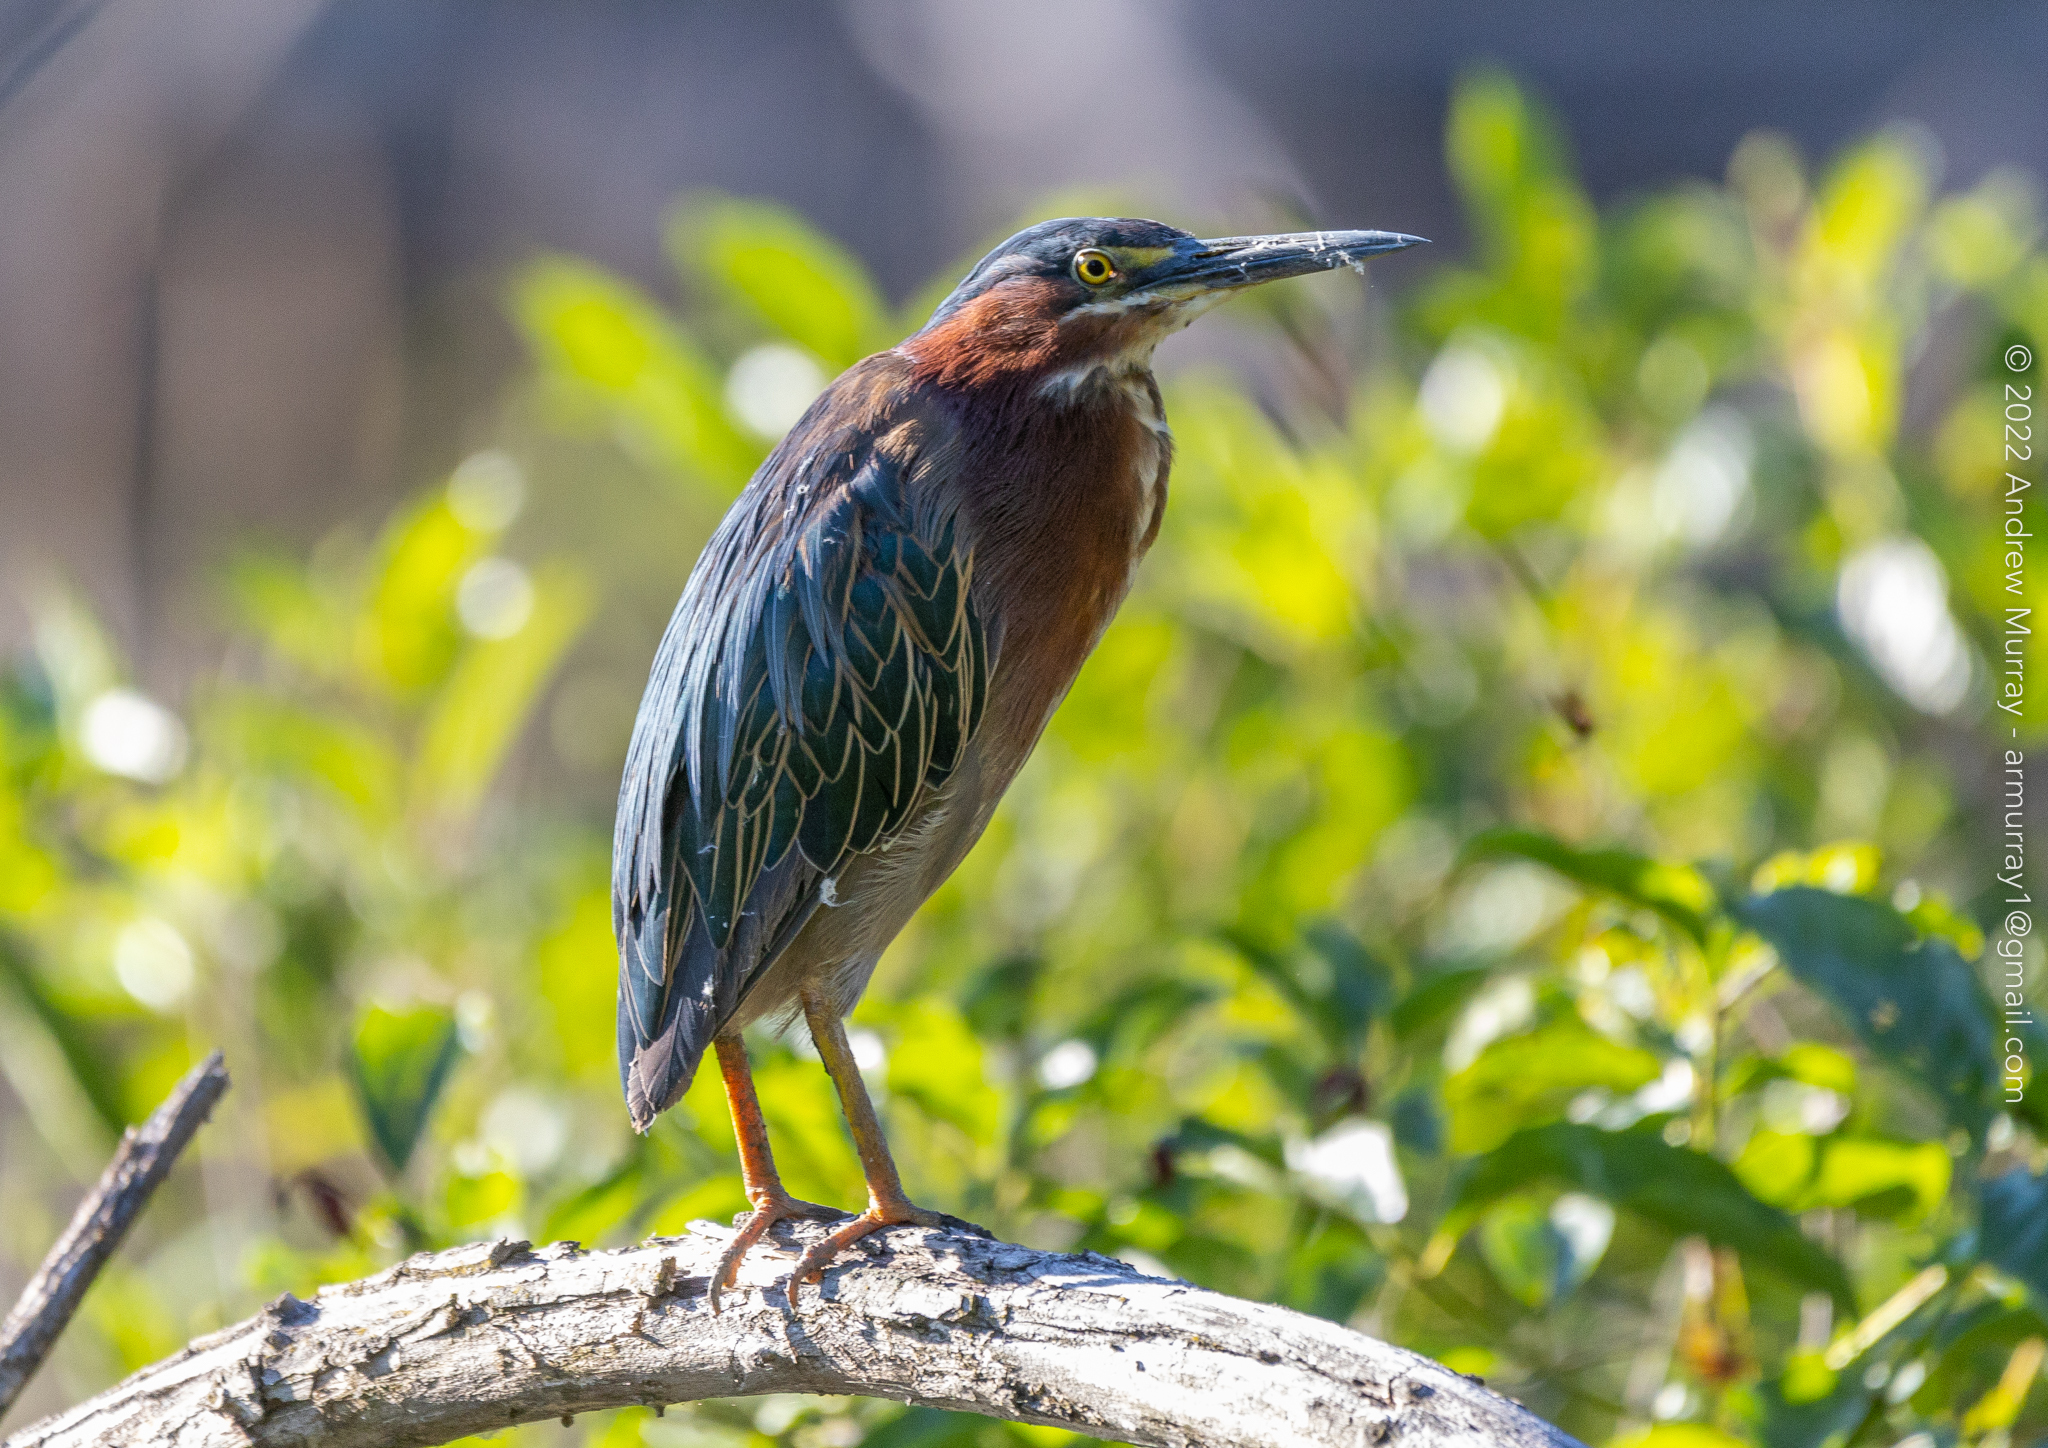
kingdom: Animalia
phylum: Chordata
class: Aves
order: Pelecaniformes
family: Ardeidae
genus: Butorides
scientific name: Butorides virescens
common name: Green heron
